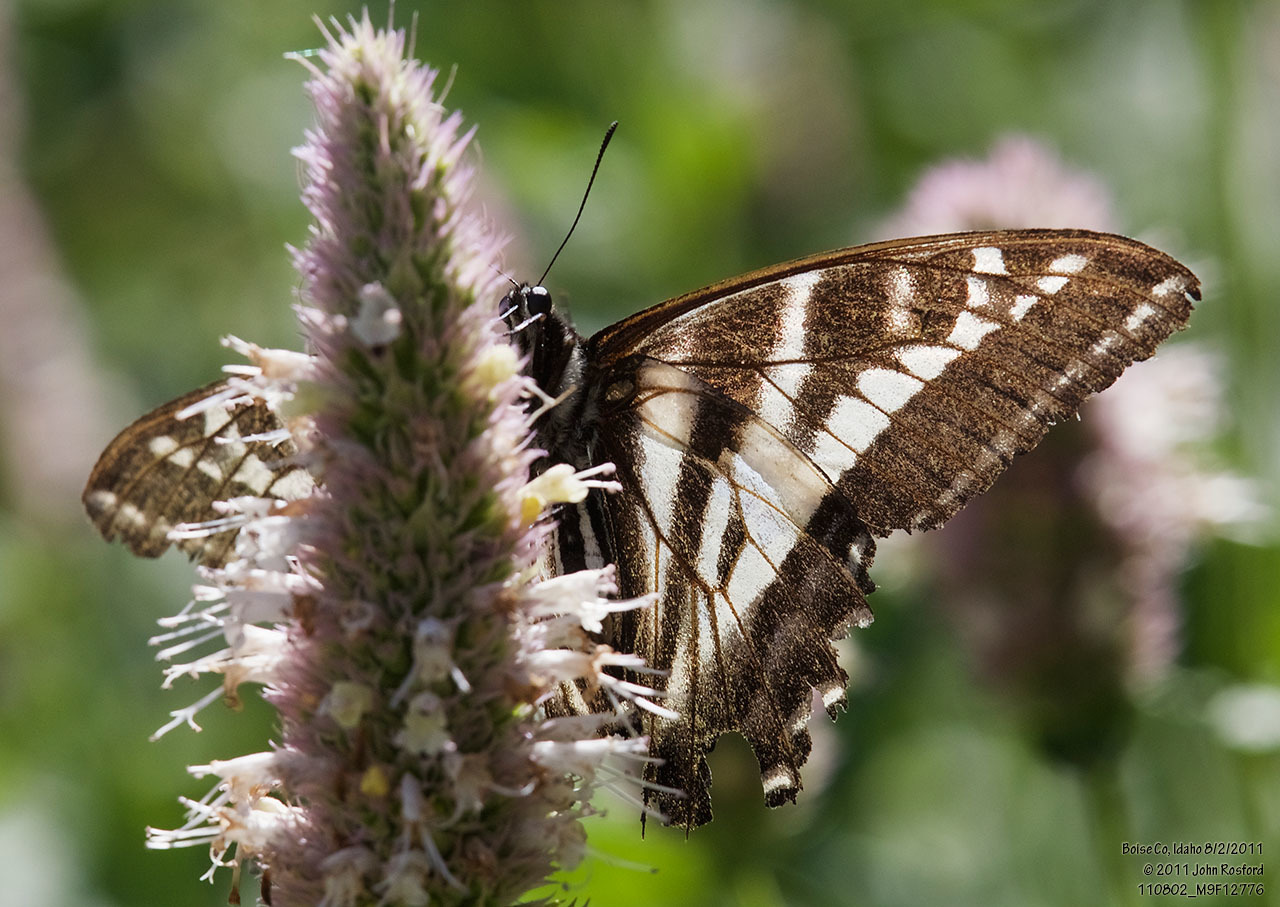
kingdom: Animalia
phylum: Arthropoda
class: Insecta
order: Lepidoptera
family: Papilionidae
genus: Papilio
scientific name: Papilio eurymedon
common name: Pale tiger swallowtail
